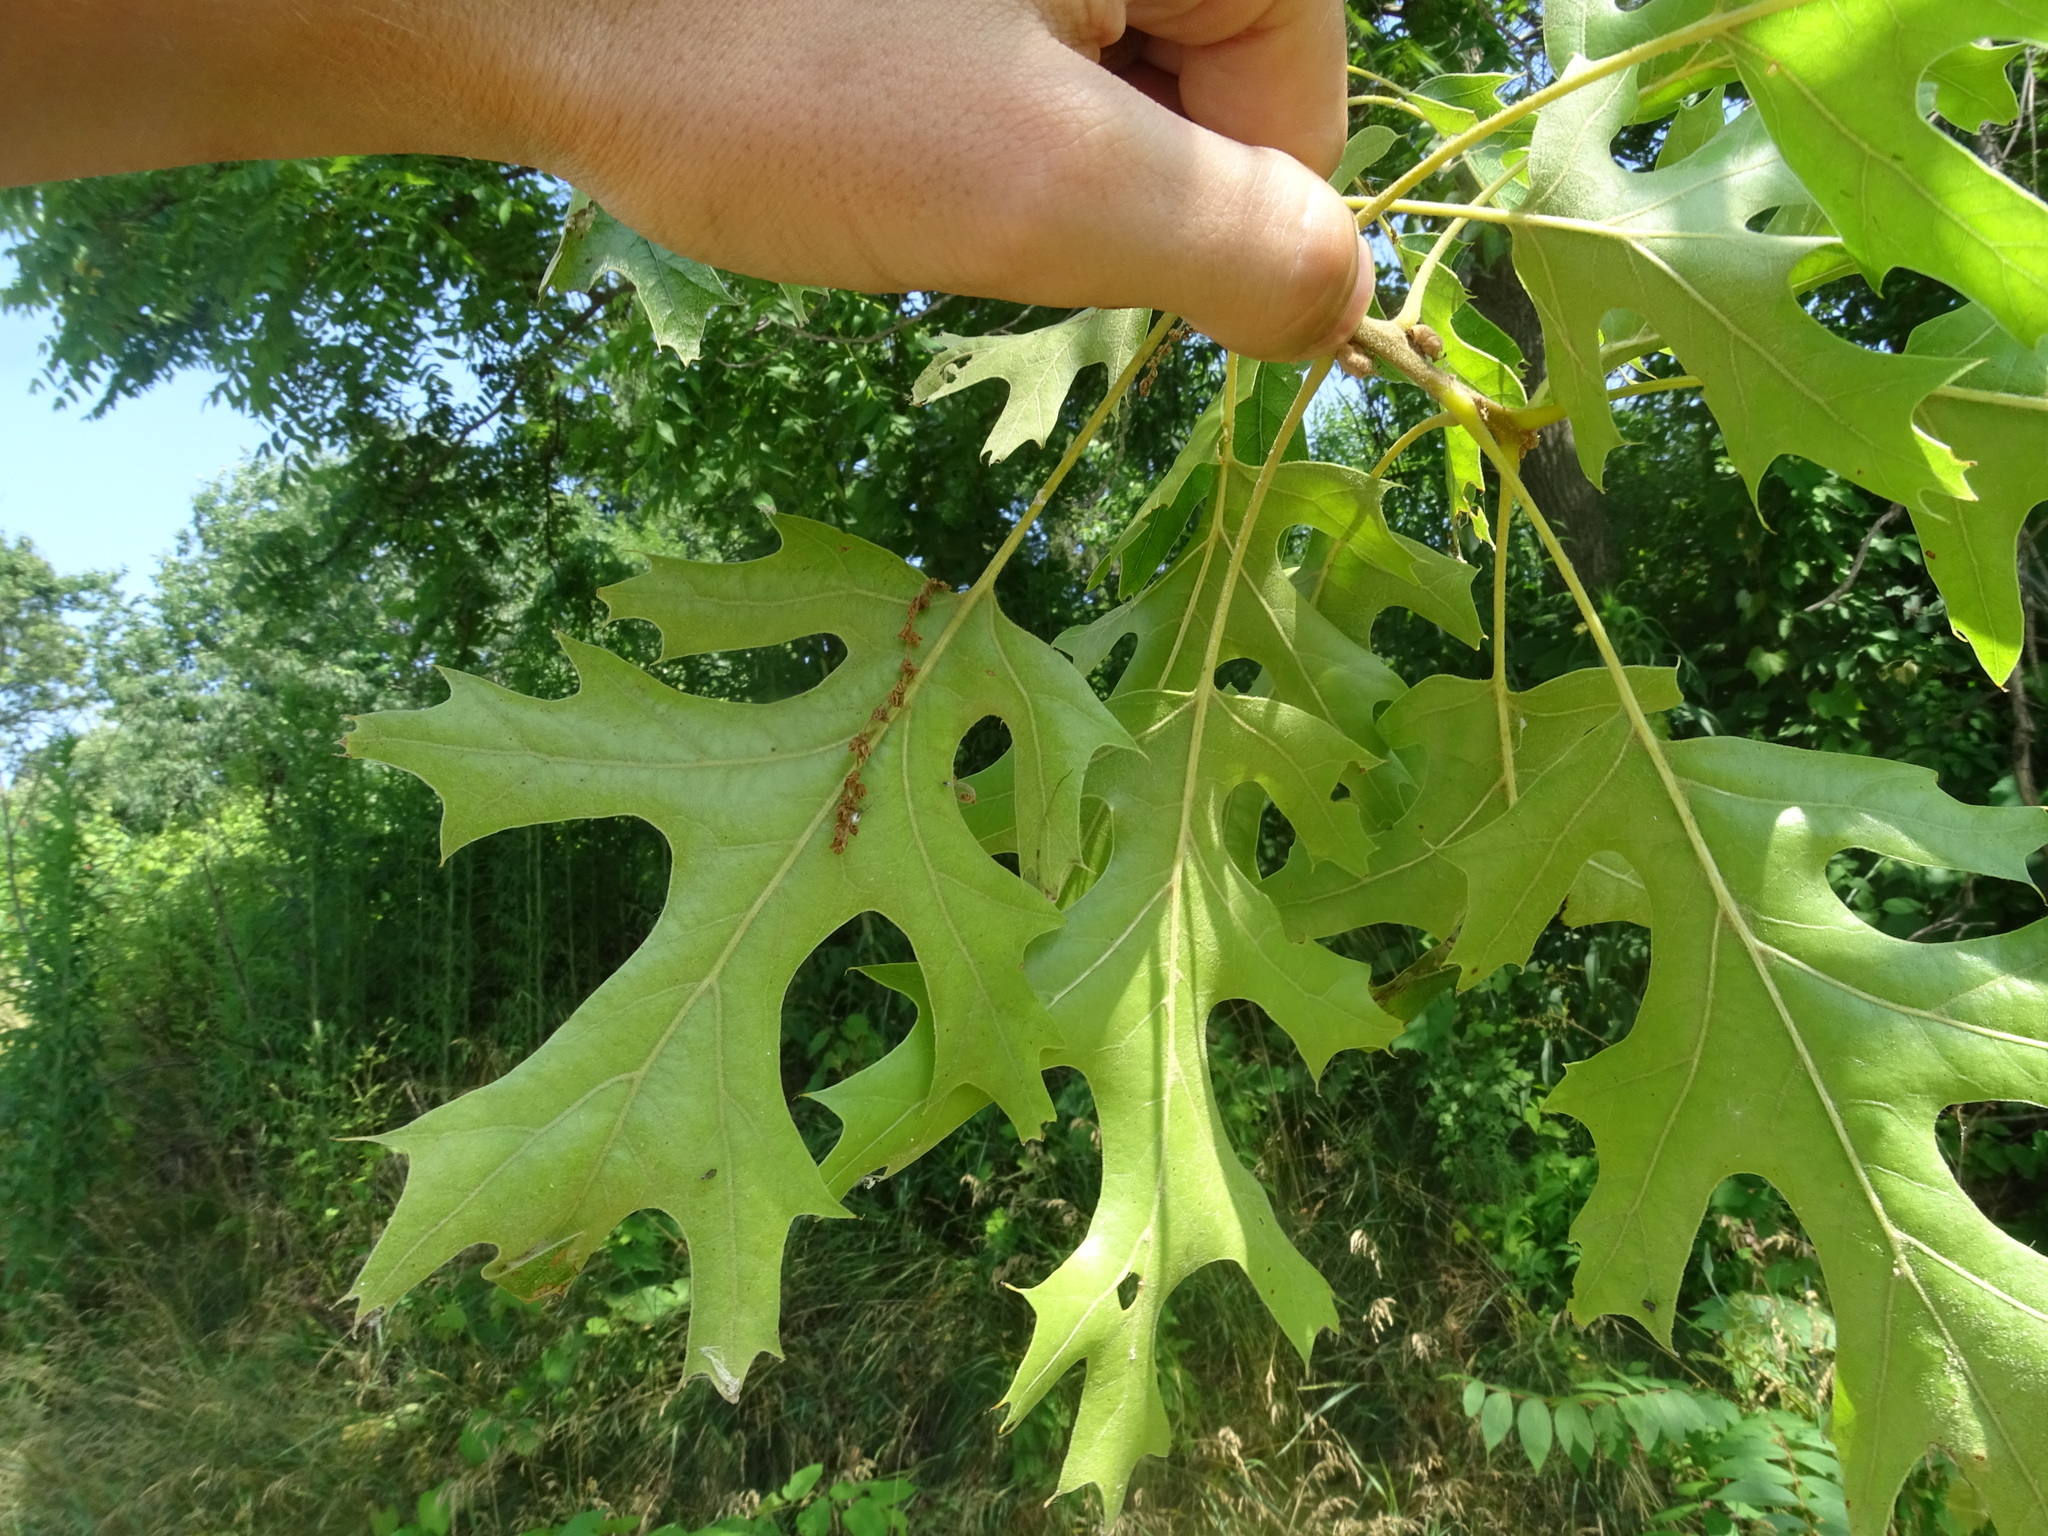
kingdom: Plantae
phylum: Tracheophyta
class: Magnoliopsida
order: Fagales
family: Fagaceae
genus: Quercus
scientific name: Quercus velutina
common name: Black oak
